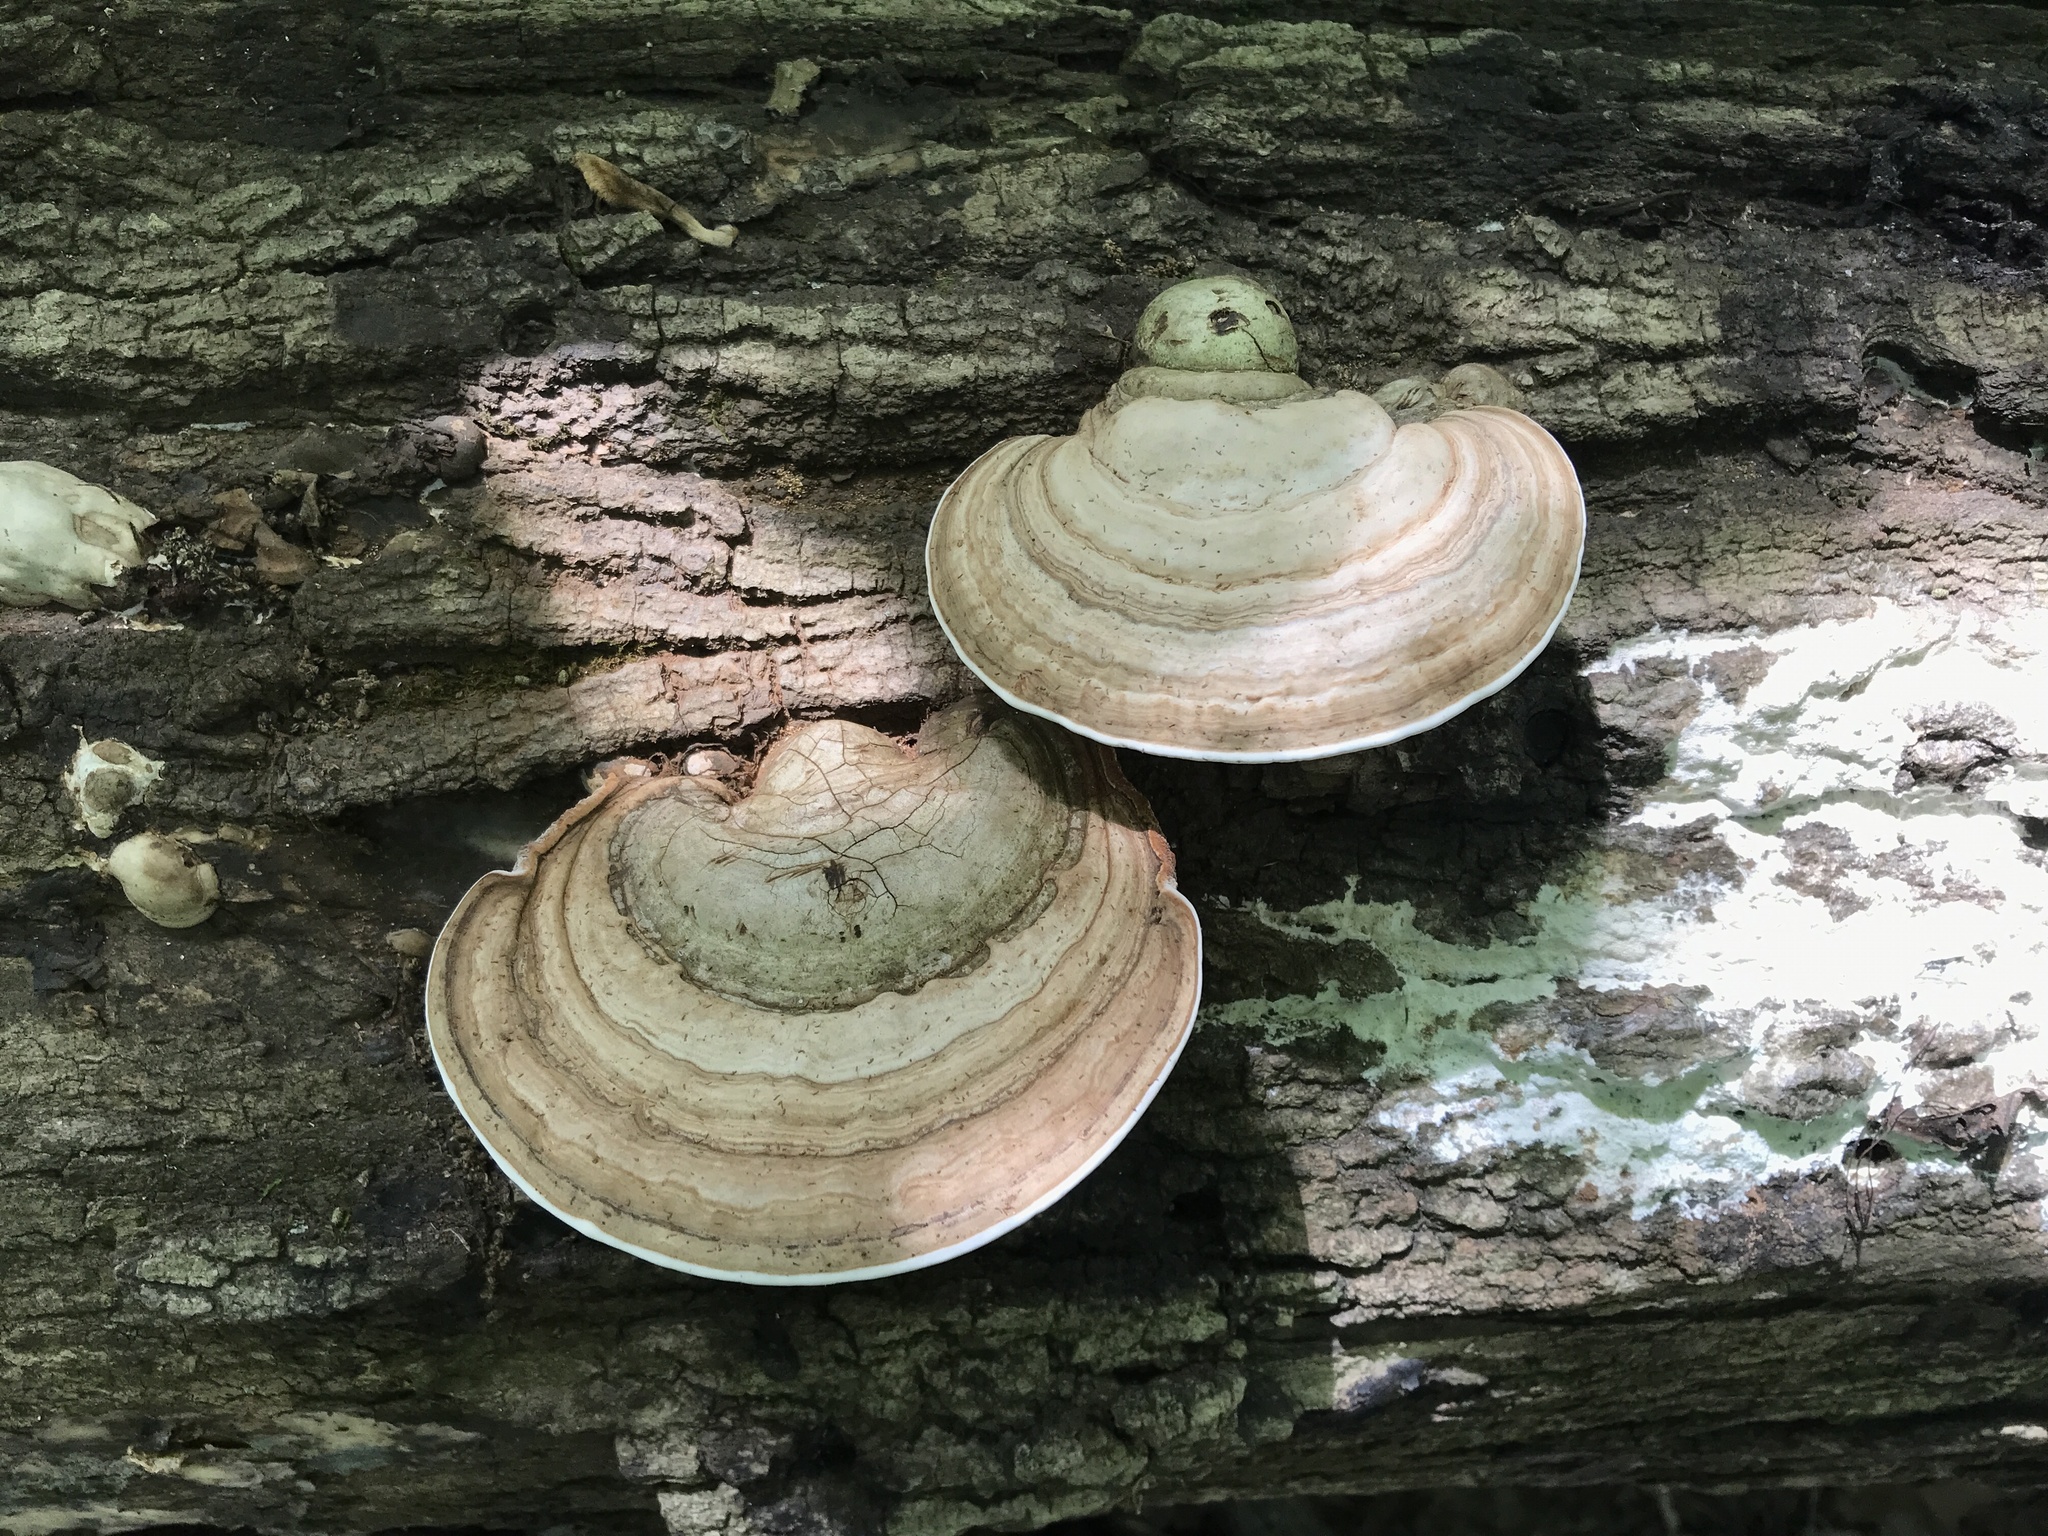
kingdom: Fungi
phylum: Basidiomycota
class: Agaricomycetes
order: Polyporales
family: Polyporaceae
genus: Ganoderma
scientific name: Ganoderma applanatum
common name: Artist's bracket
